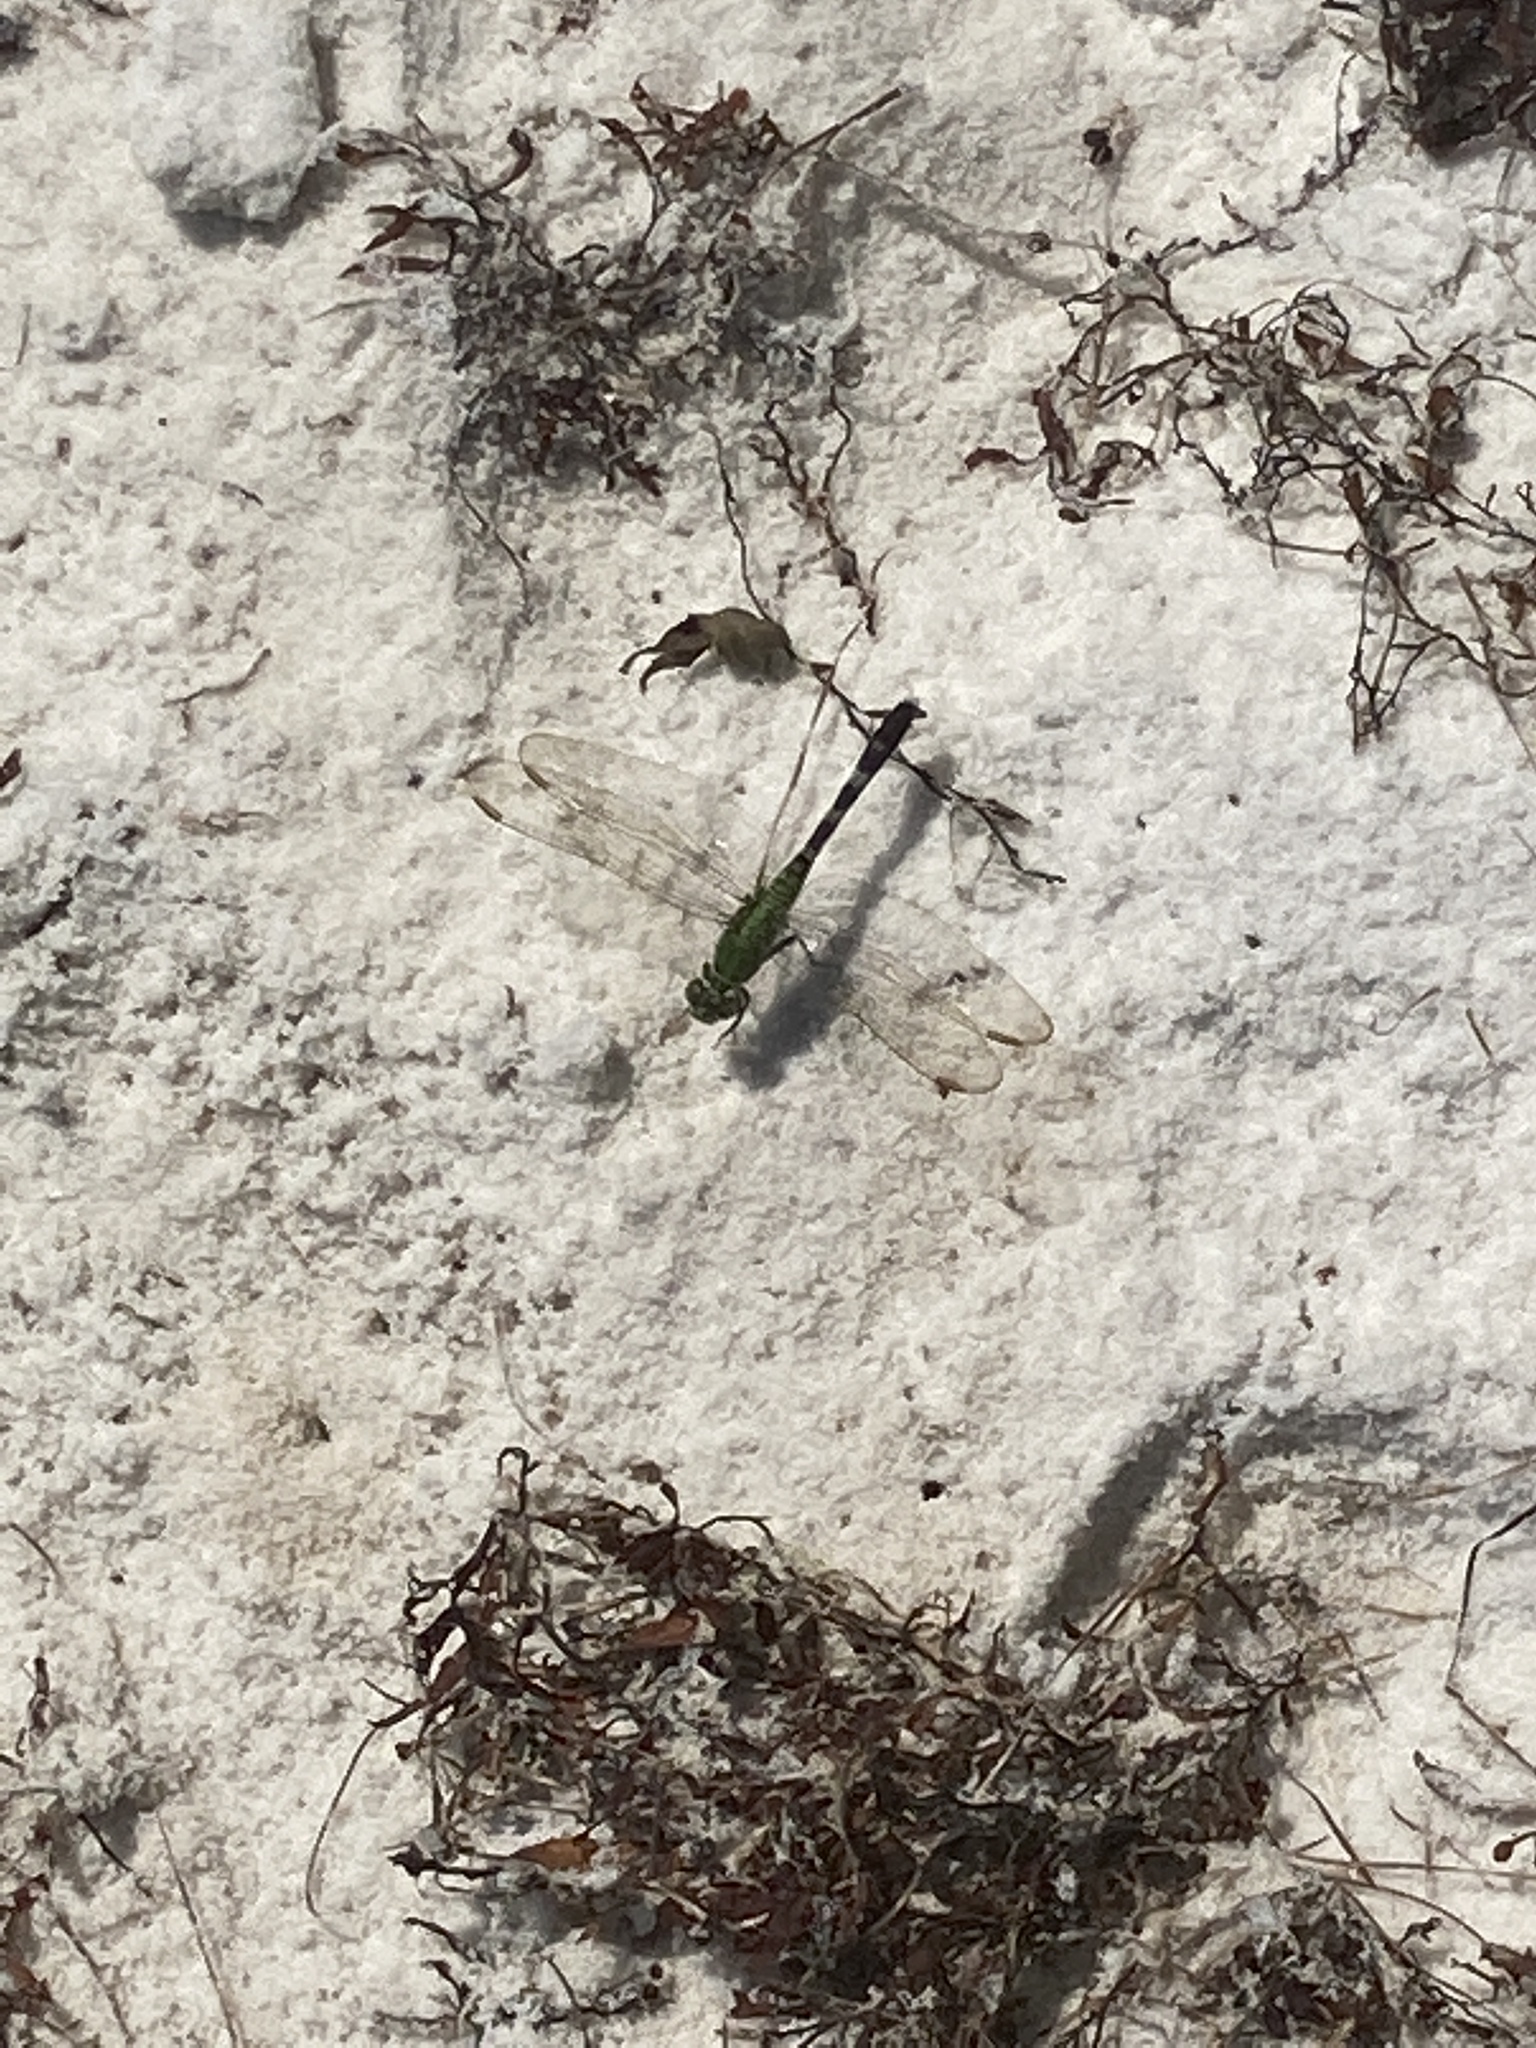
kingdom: Animalia
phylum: Arthropoda
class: Insecta
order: Odonata
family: Libellulidae
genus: Erythemis
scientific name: Erythemis simplicicollis
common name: Eastern pondhawk
